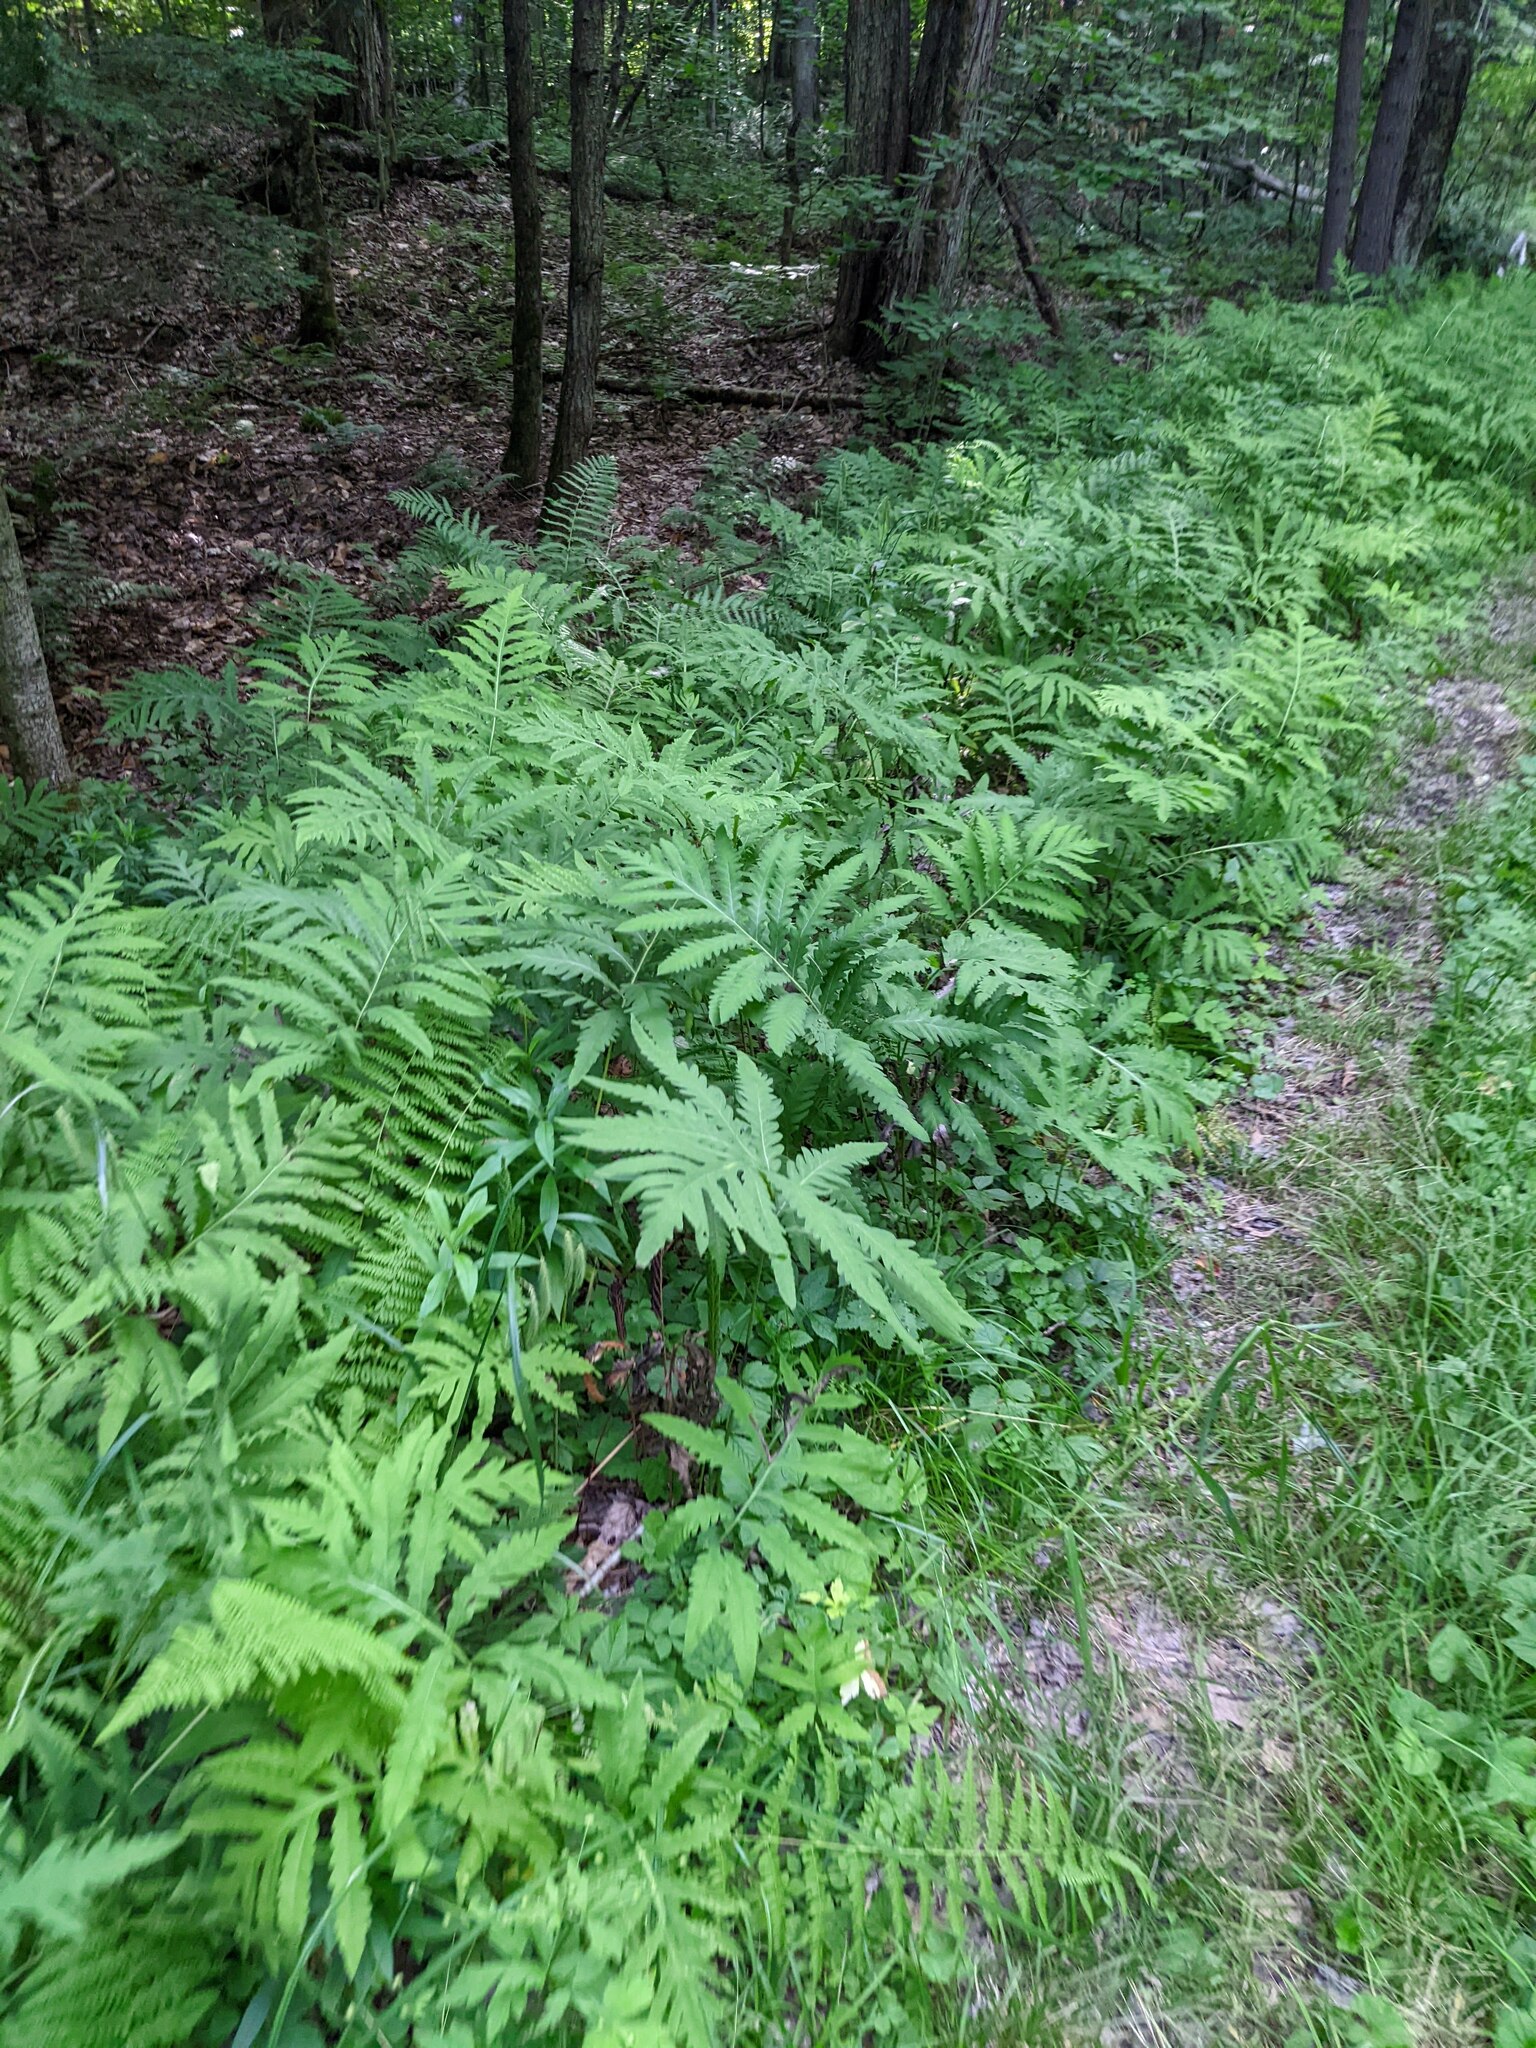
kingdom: Plantae
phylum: Tracheophyta
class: Polypodiopsida
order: Polypodiales
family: Onocleaceae
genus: Onoclea
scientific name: Onoclea sensibilis
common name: Sensitive fern
